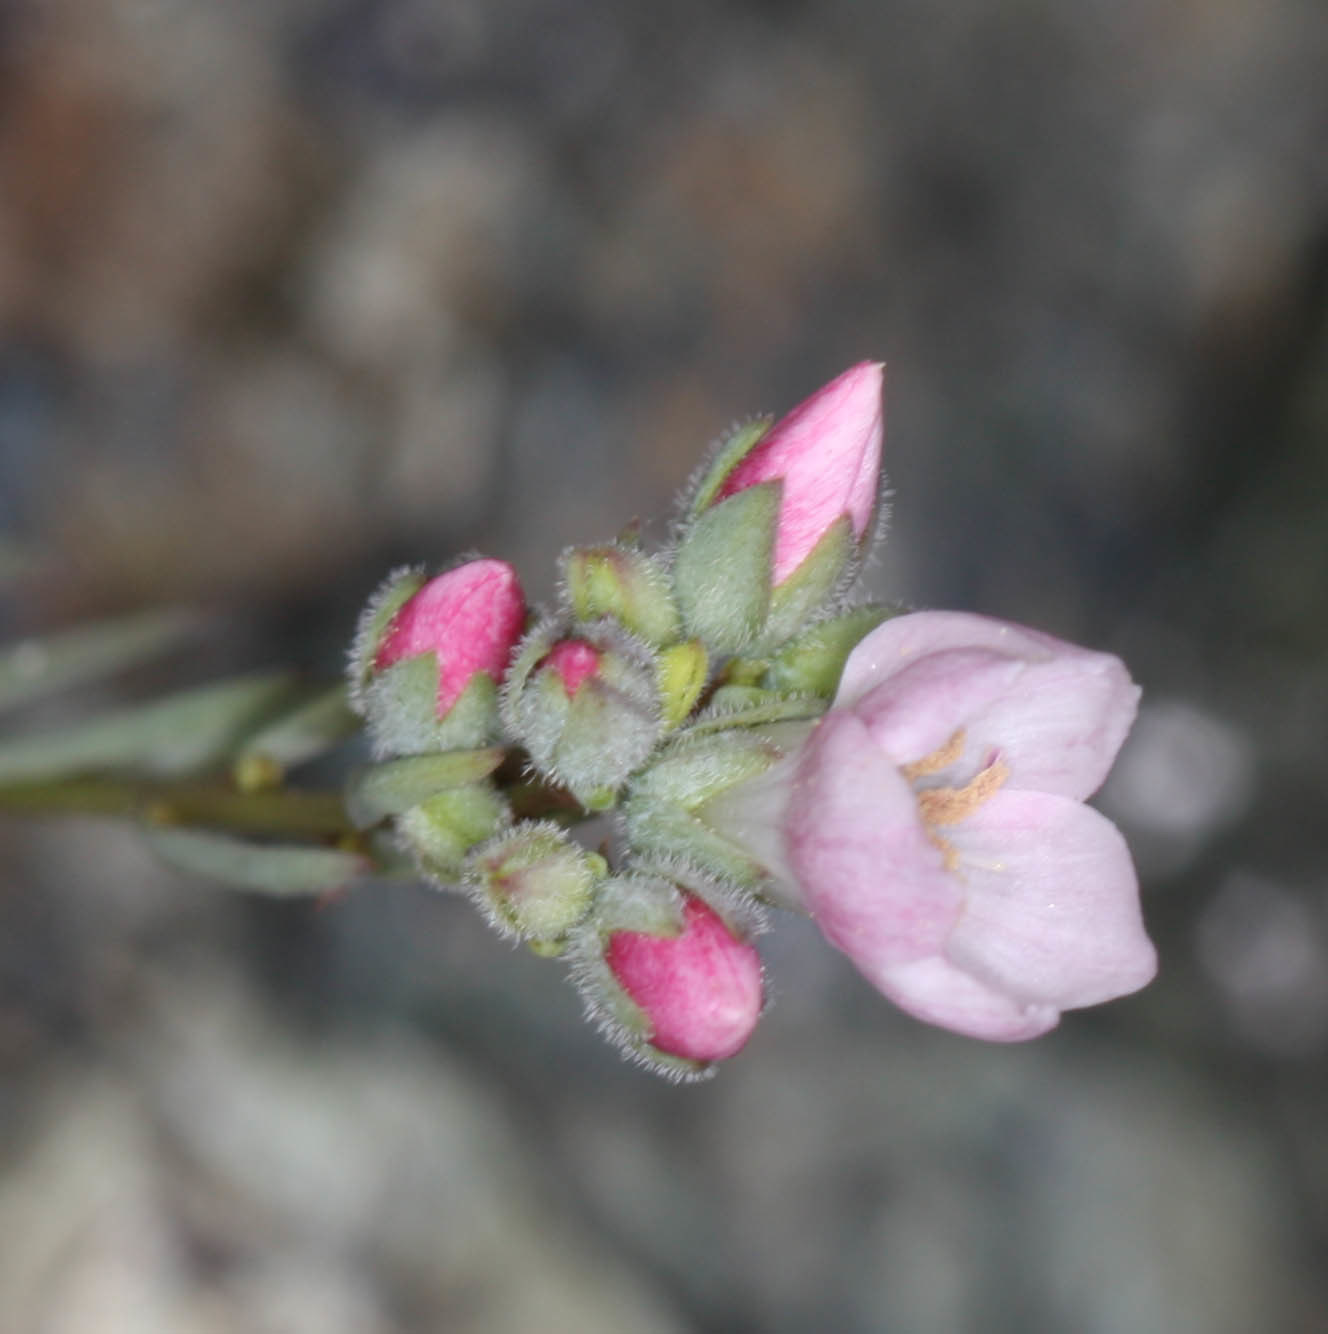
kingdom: Plantae
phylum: Tracheophyta
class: Magnoliopsida
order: Malpighiales
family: Linaceae
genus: Hesperolinon
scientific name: Hesperolinon congestum
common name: Marin dwarf-flax
